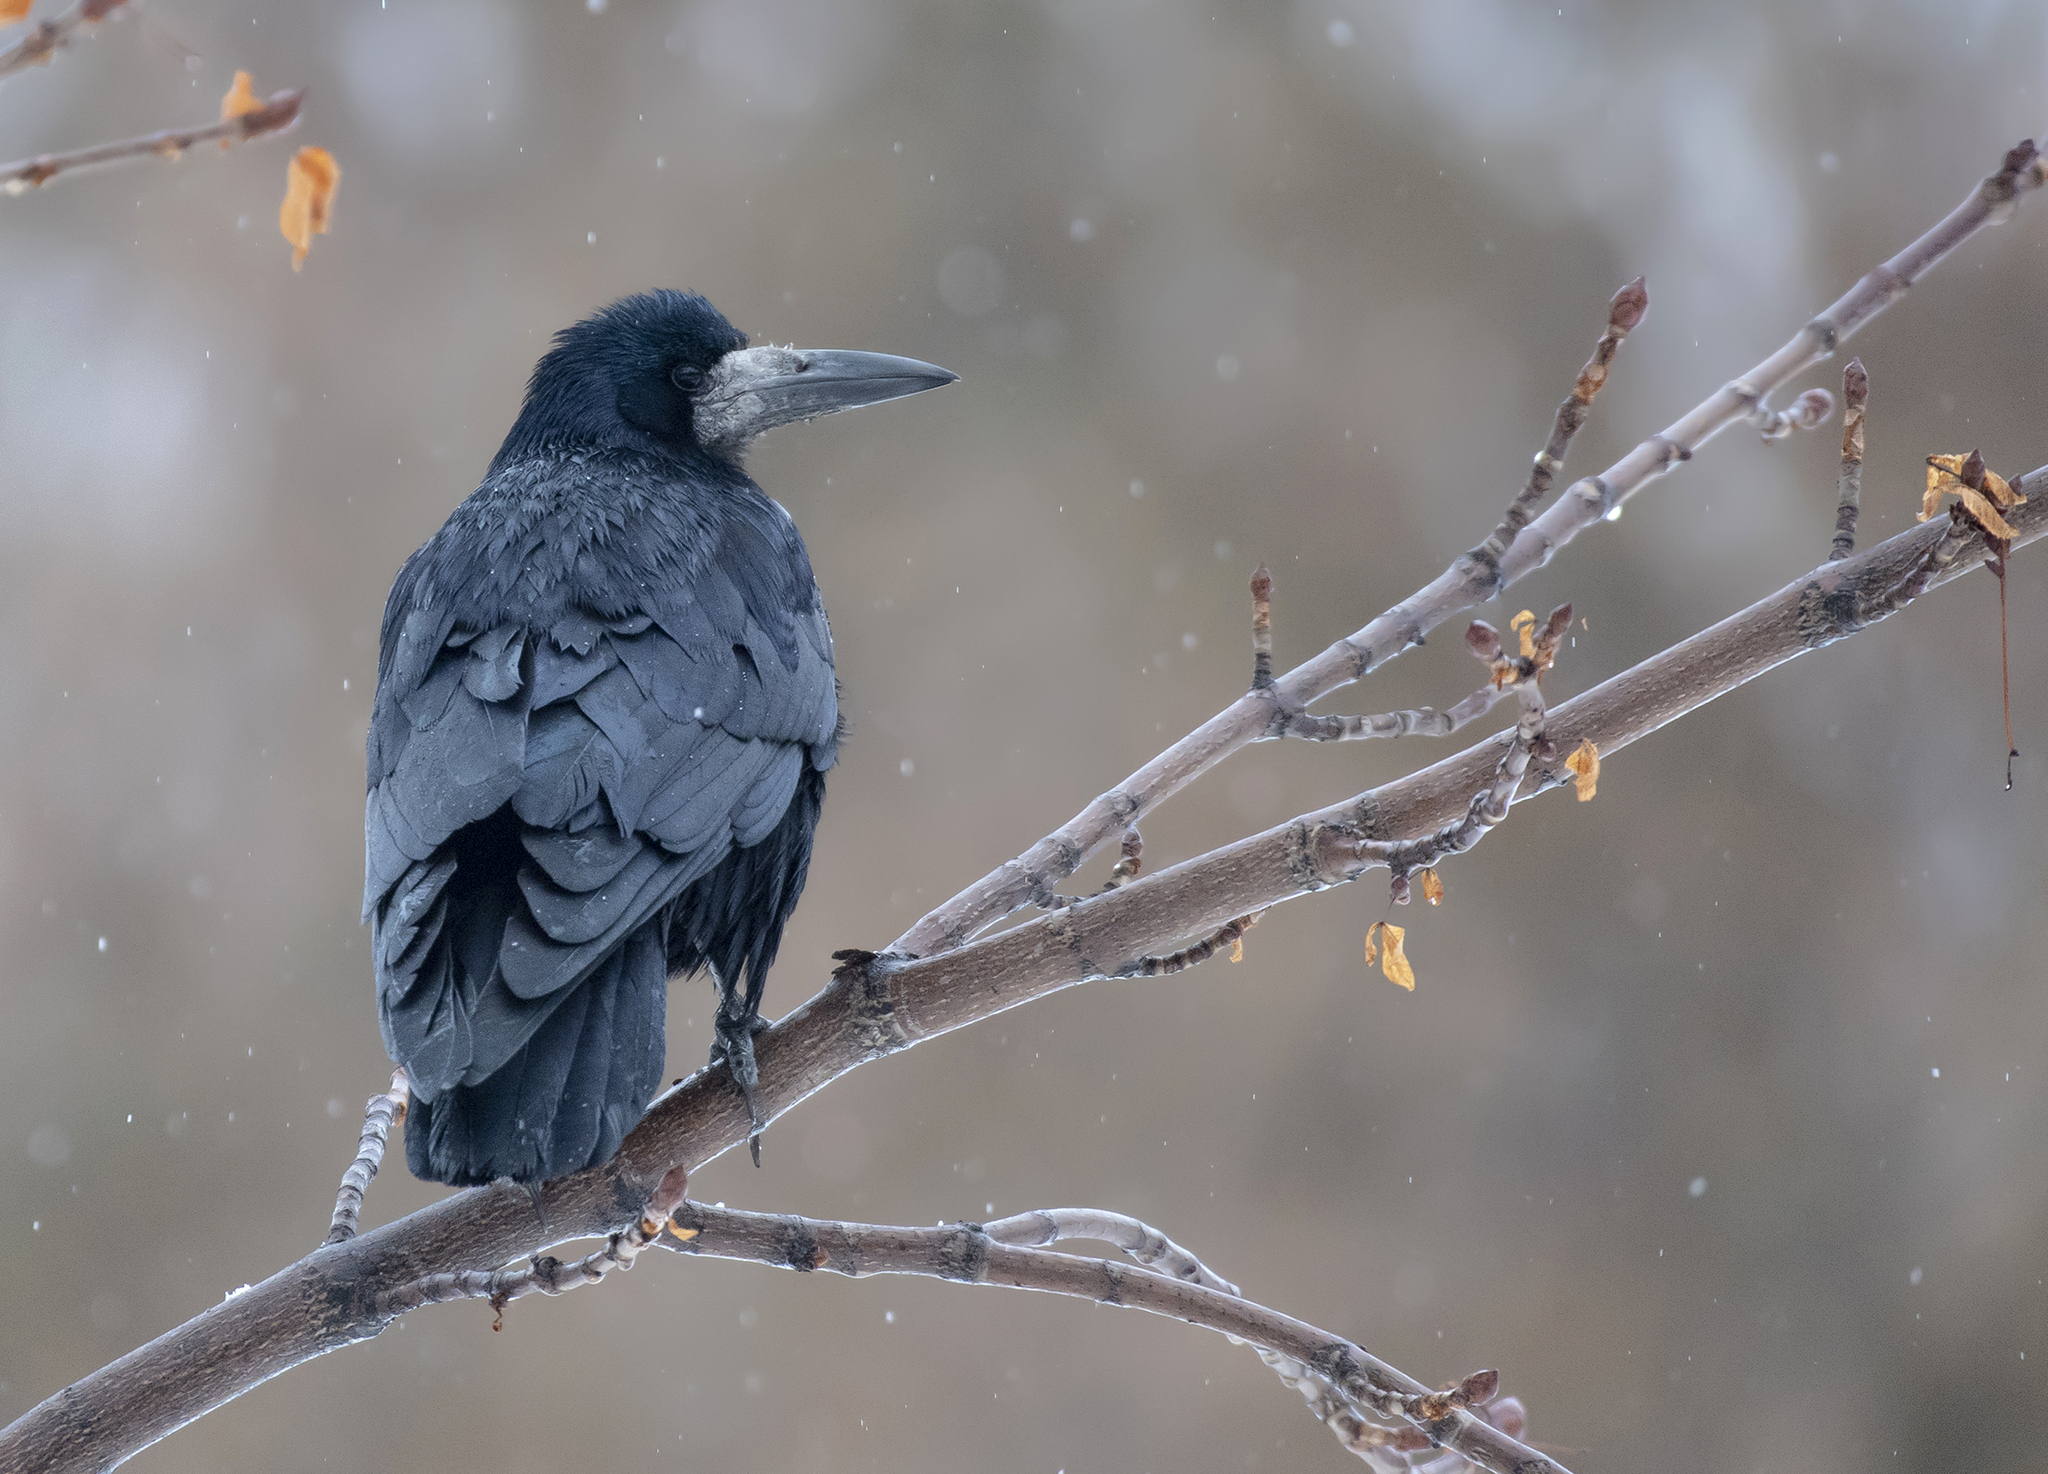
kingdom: Animalia
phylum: Chordata
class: Aves
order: Passeriformes
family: Corvidae
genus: Corvus
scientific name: Corvus frugilegus
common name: Rook
